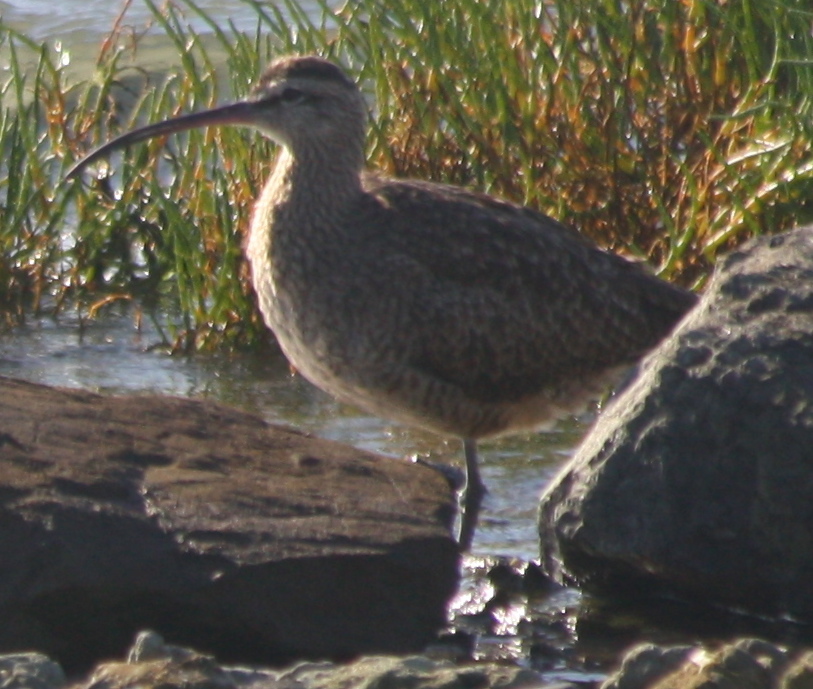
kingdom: Animalia
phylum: Chordata
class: Aves
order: Charadriiformes
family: Scolopacidae
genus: Numenius
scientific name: Numenius phaeopus
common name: Whimbrel
